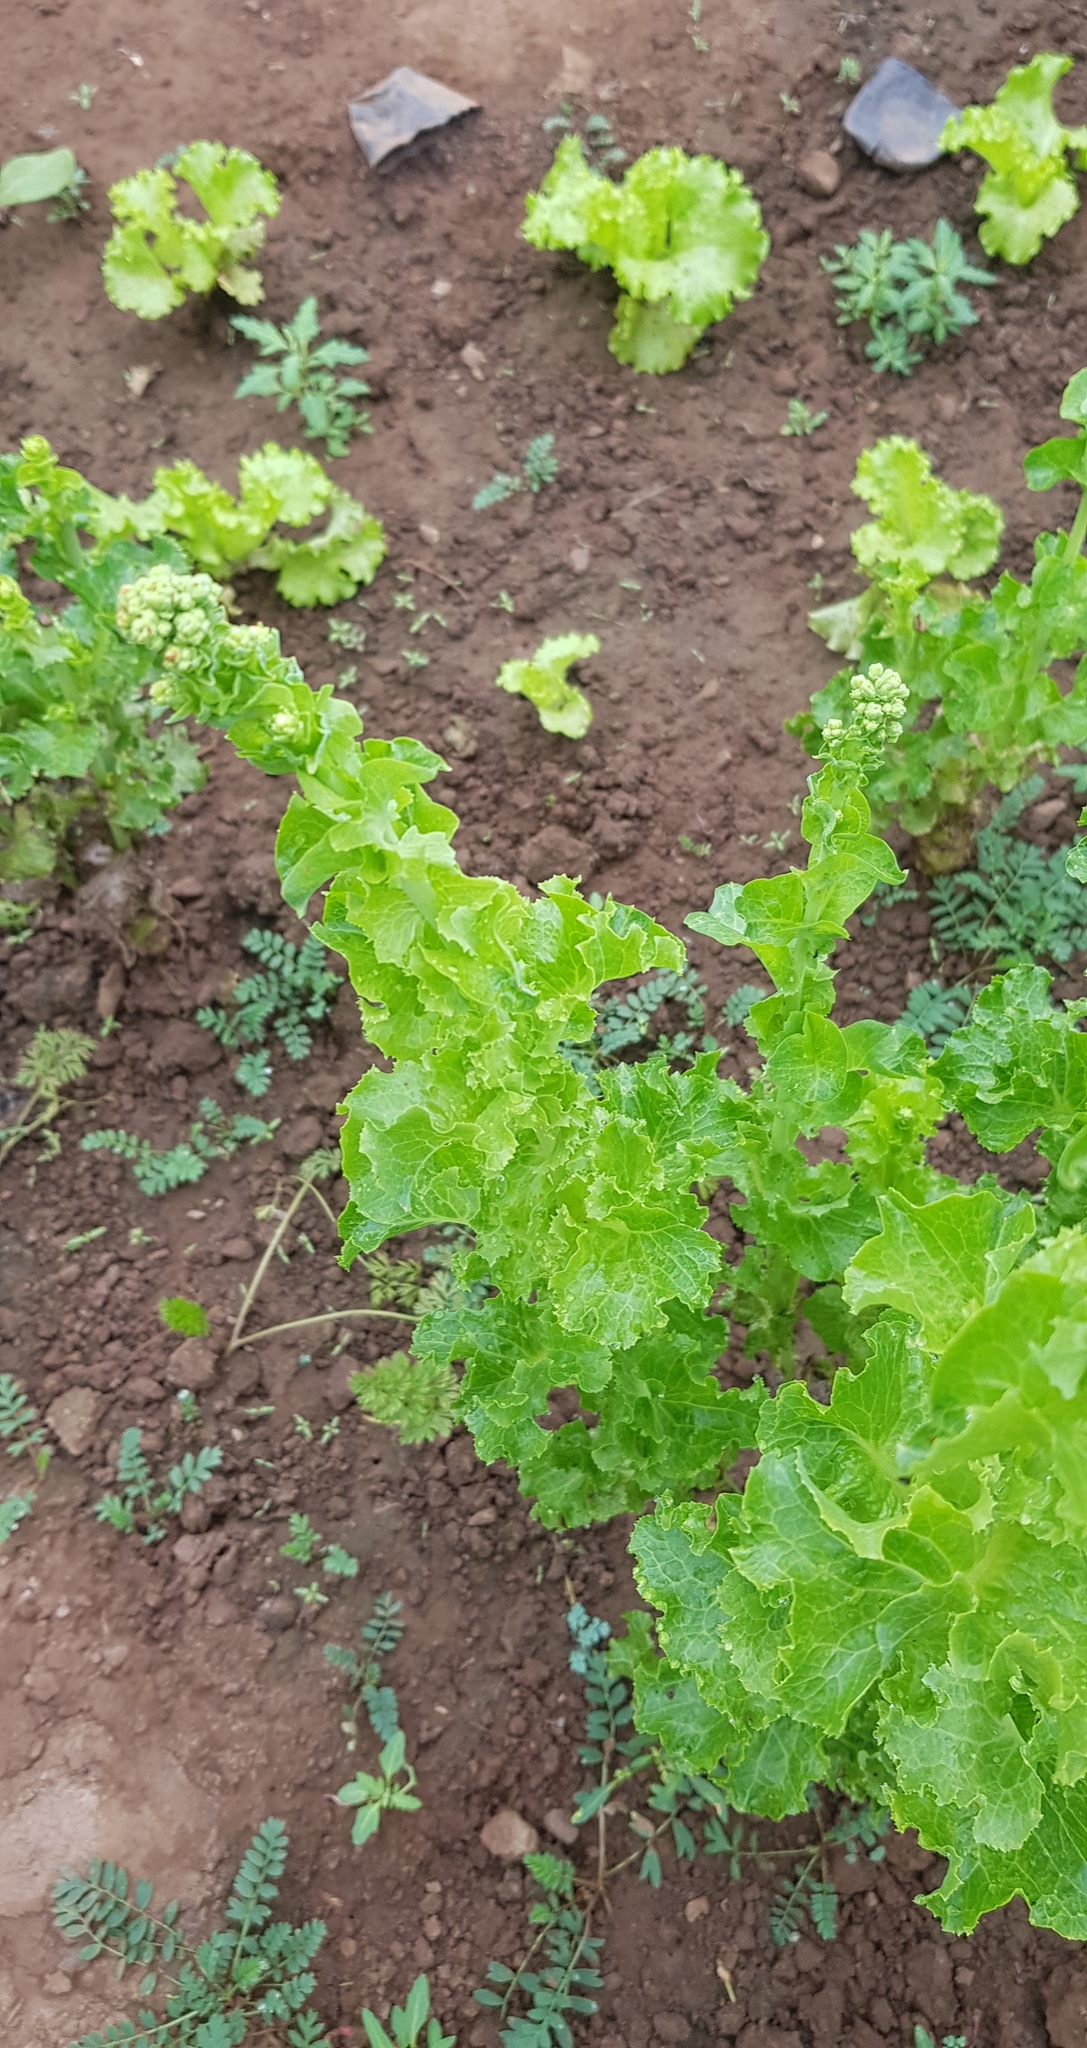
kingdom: Plantae
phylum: Tracheophyta
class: Magnoliopsida
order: Asterales
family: Asteraceae
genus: Lactuca
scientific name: Lactuca sativa
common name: Garden lettuce
